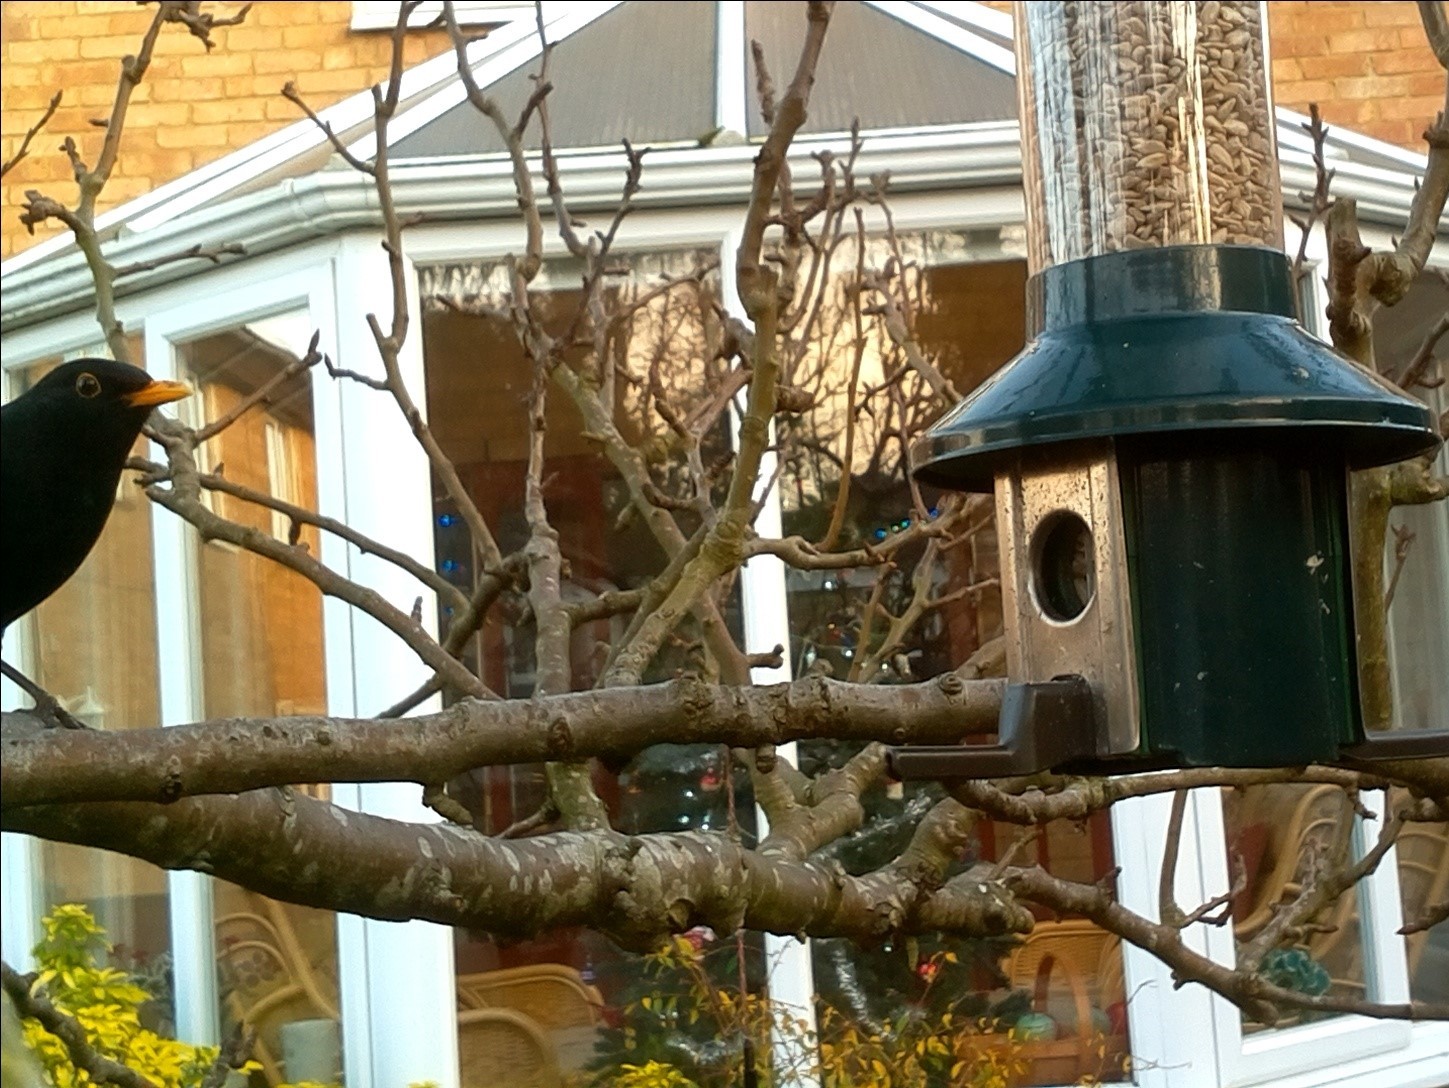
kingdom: Animalia
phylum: Chordata
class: Aves
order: Passeriformes
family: Turdidae
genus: Turdus
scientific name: Turdus merula
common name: Common blackbird
